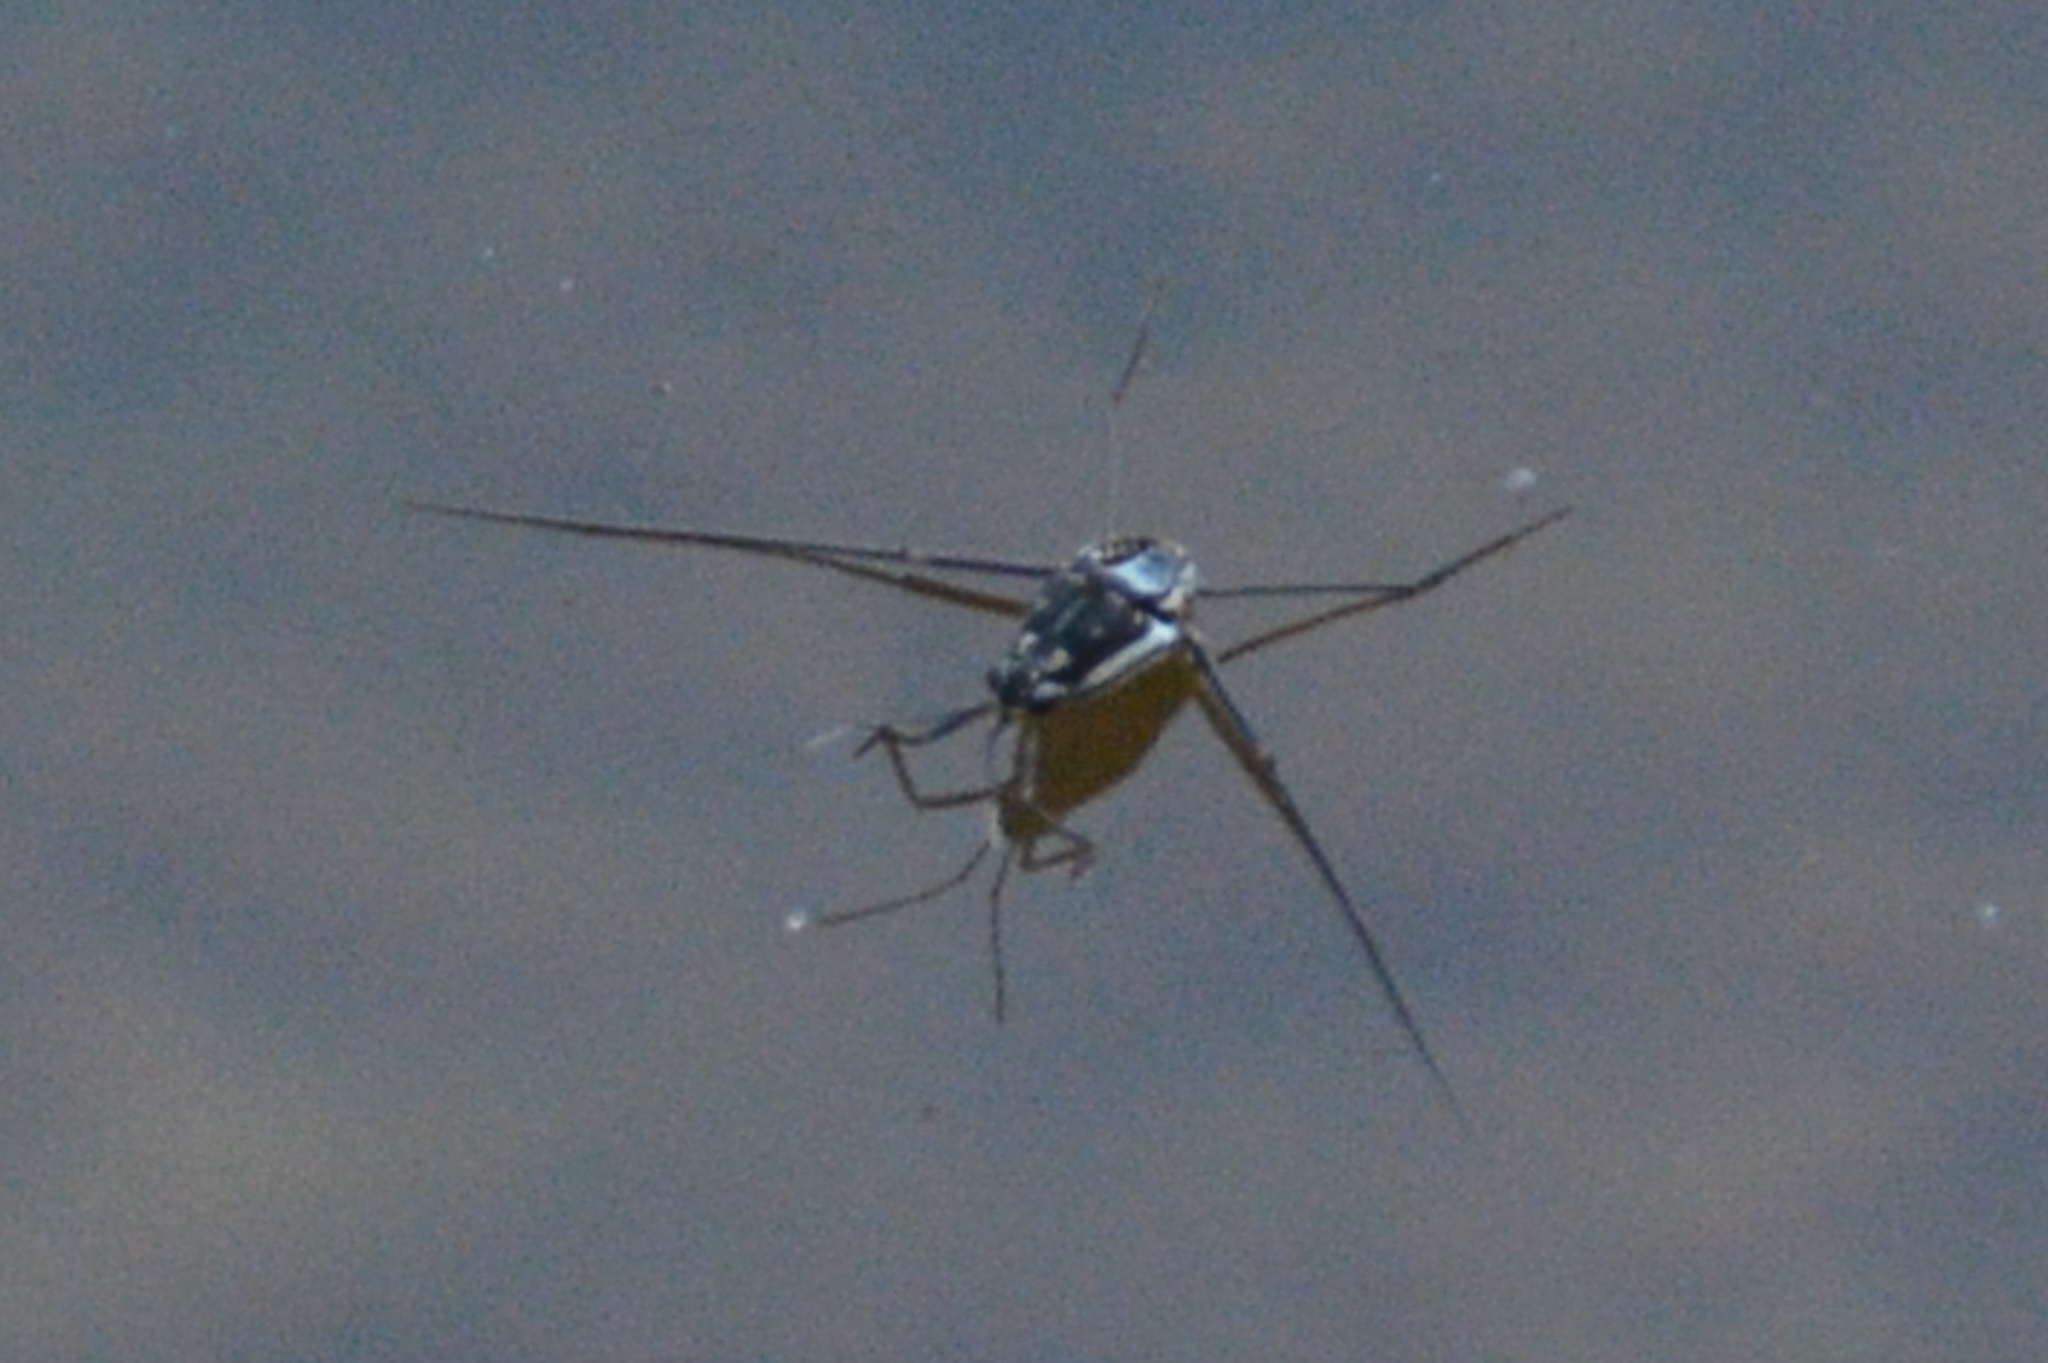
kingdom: Animalia
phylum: Arthropoda
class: Insecta
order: Hemiptera
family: Gerridae
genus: Trepobates
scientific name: Trepobates
